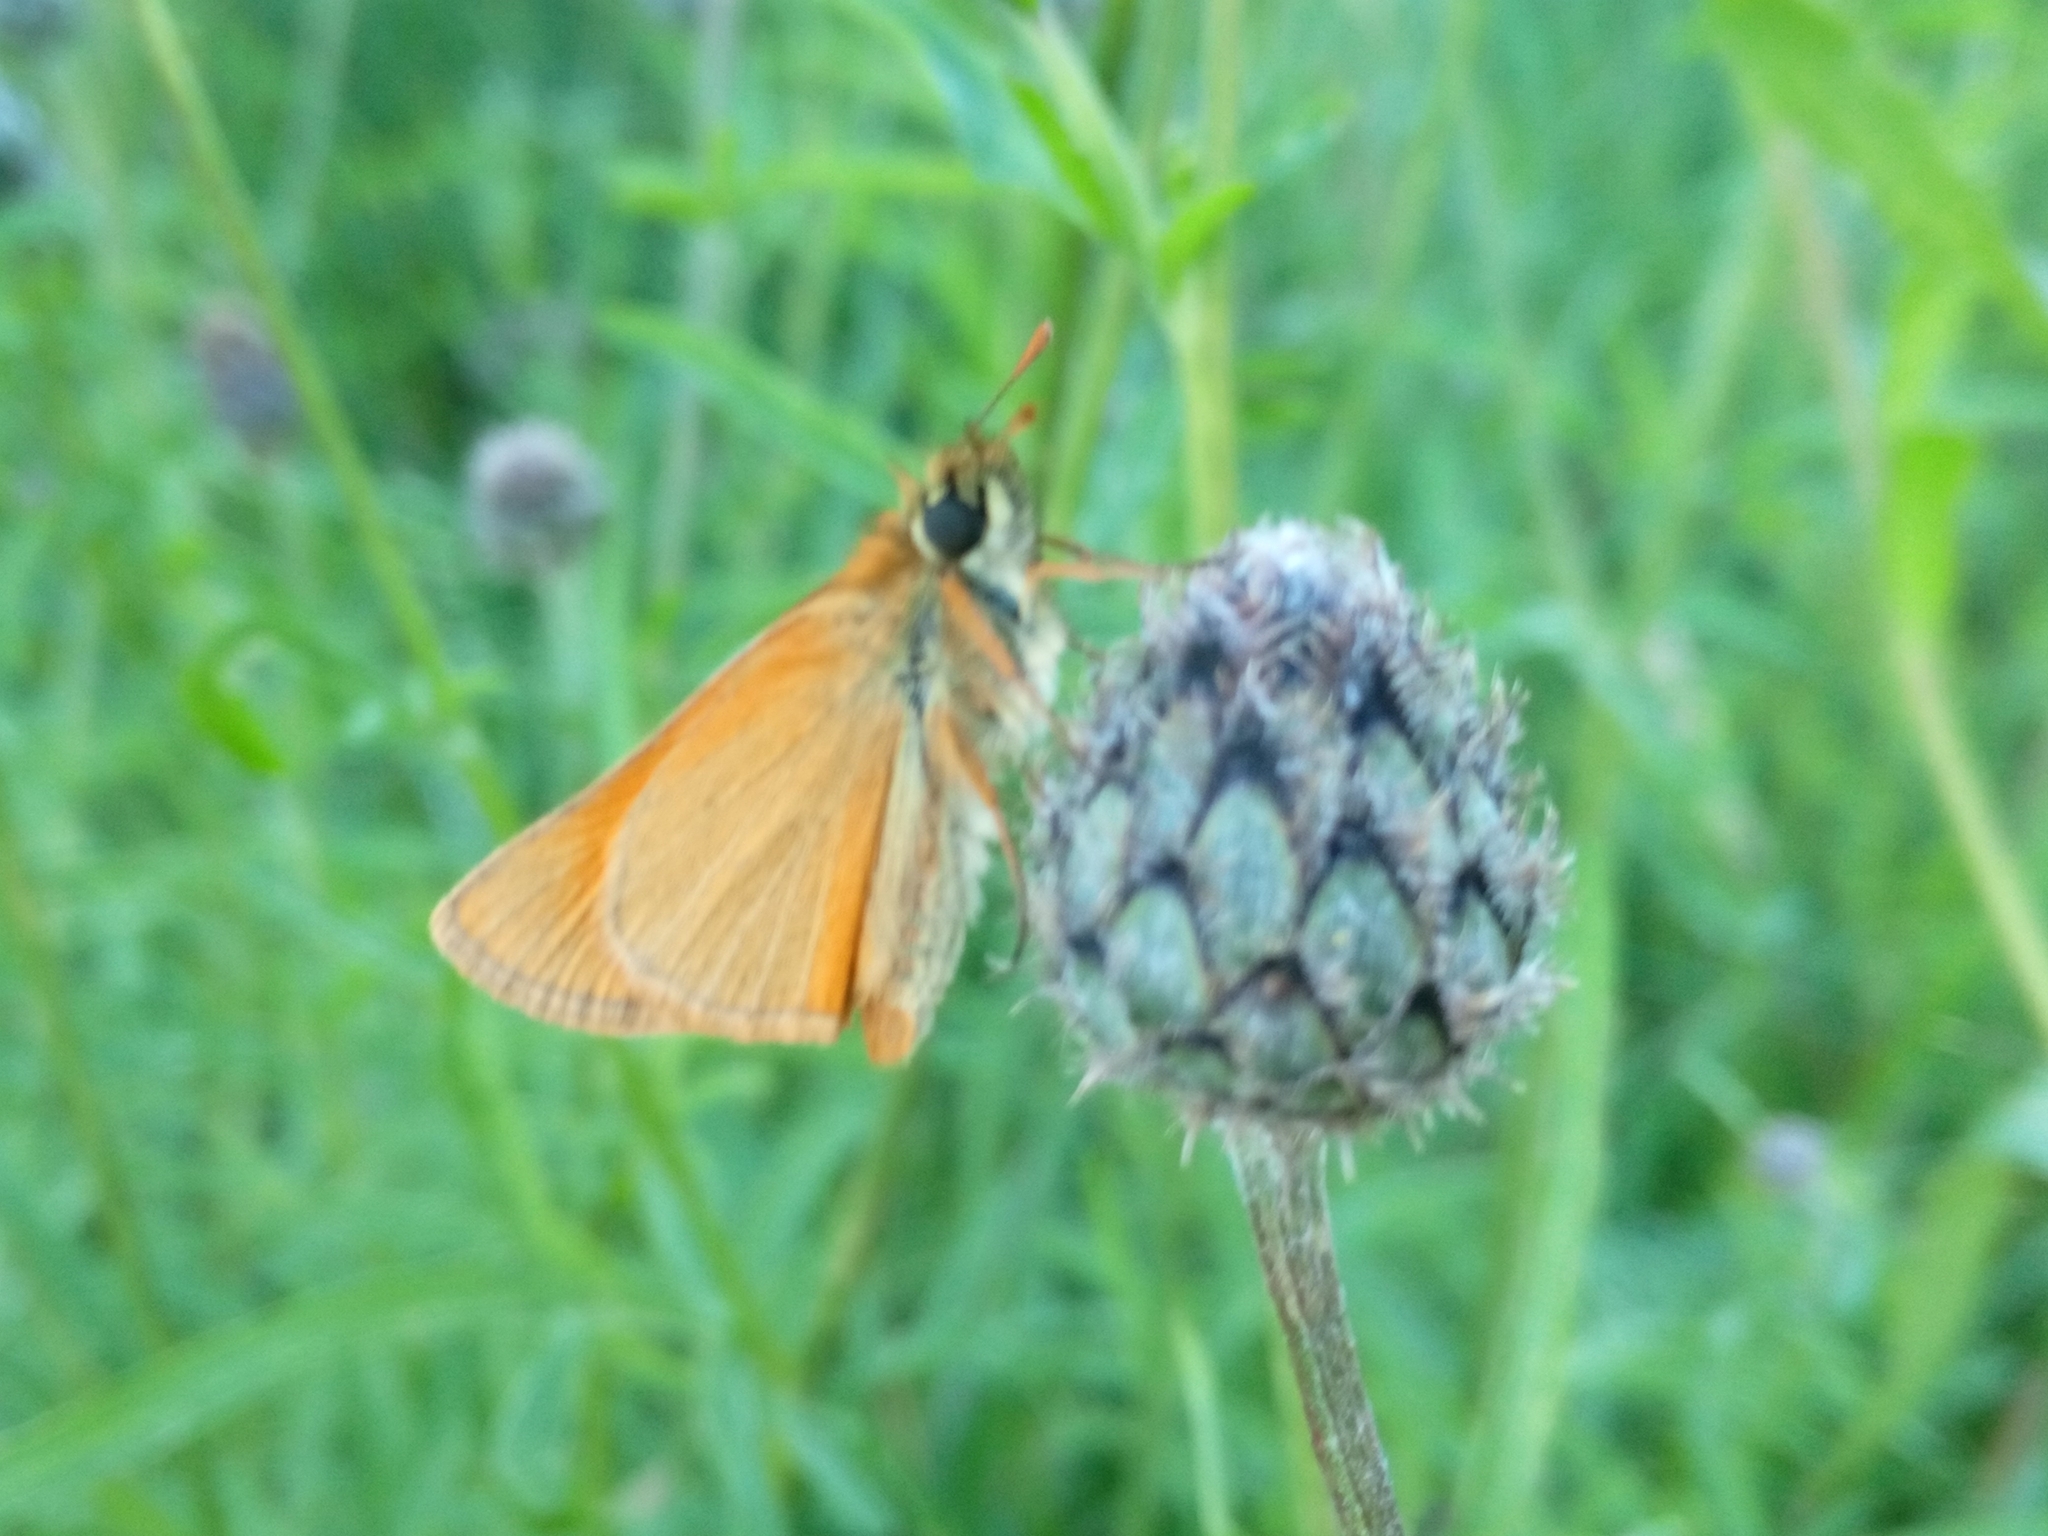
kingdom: Animalia
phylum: Arthropoda
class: Insecta
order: Lepidoptera
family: Hesperiidae
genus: Thymelicus
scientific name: Thymelicus sylvestris
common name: Small skipper
